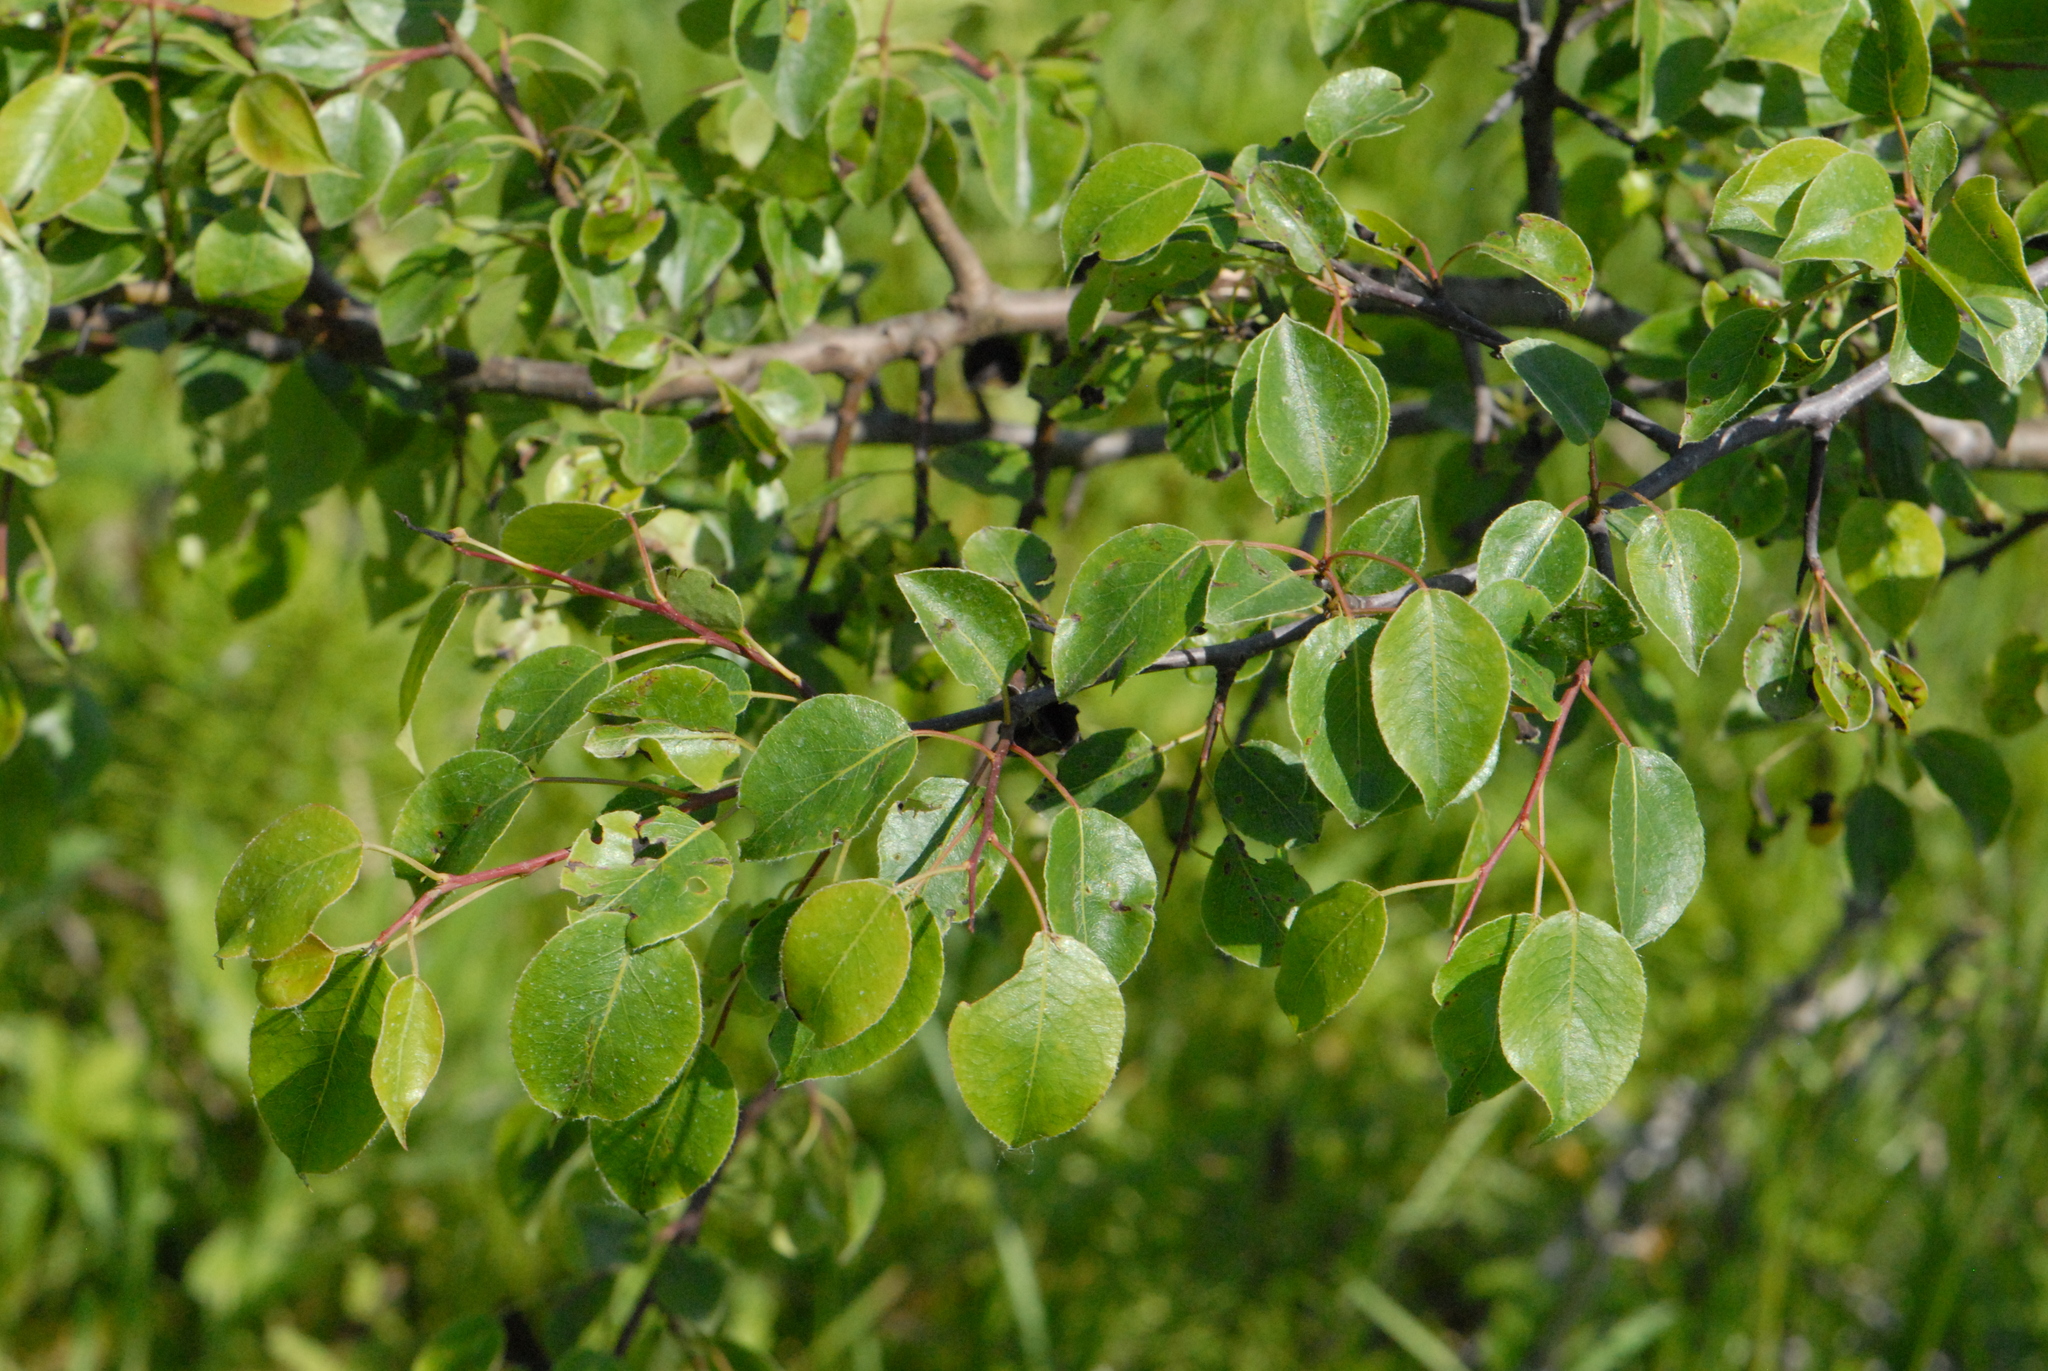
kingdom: Plantae
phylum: Tracheophyta
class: Magnoliopsida
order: Rosales
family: Rosaceae
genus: Pyrus
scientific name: Pyrus communis
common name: Pear
